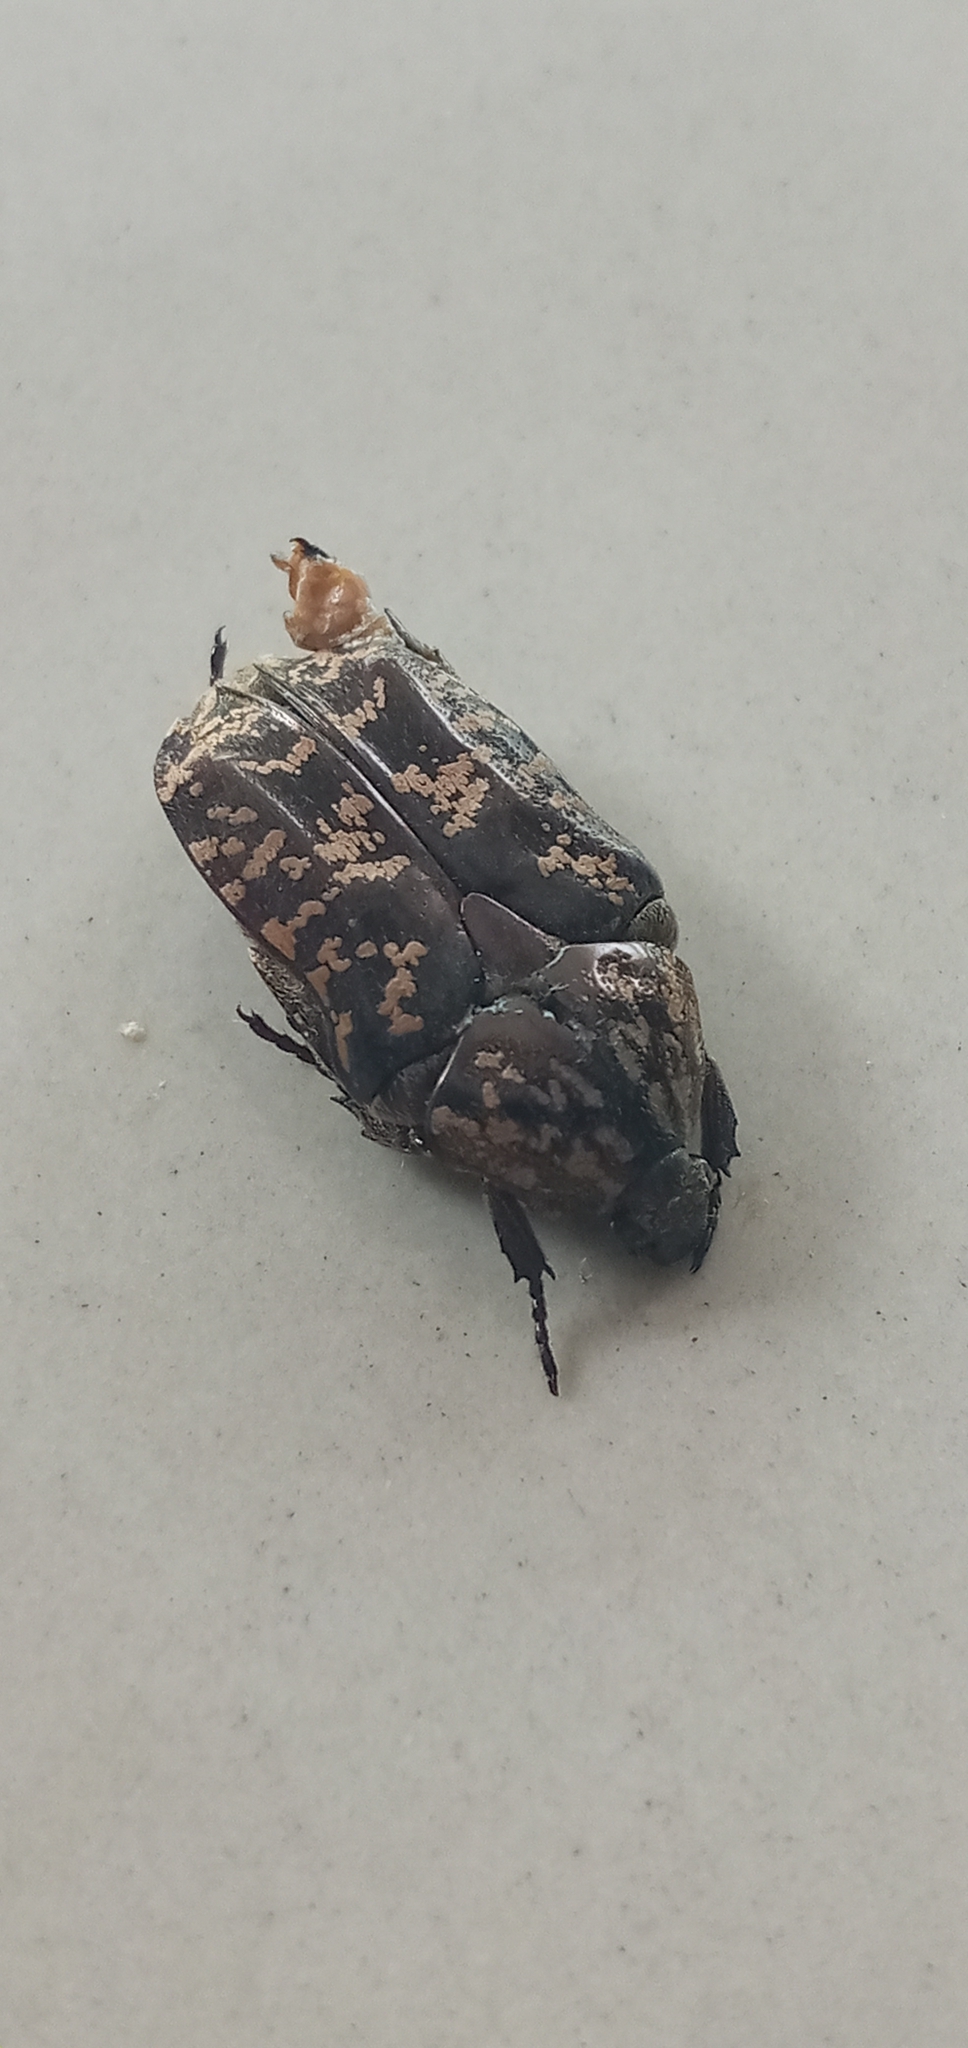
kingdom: Animalia
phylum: Arthropoda
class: Insecta
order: Coleoptera
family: Scarabaeidae
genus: Protaetia
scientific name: Protaetia fusca
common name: Mango flower beetle
